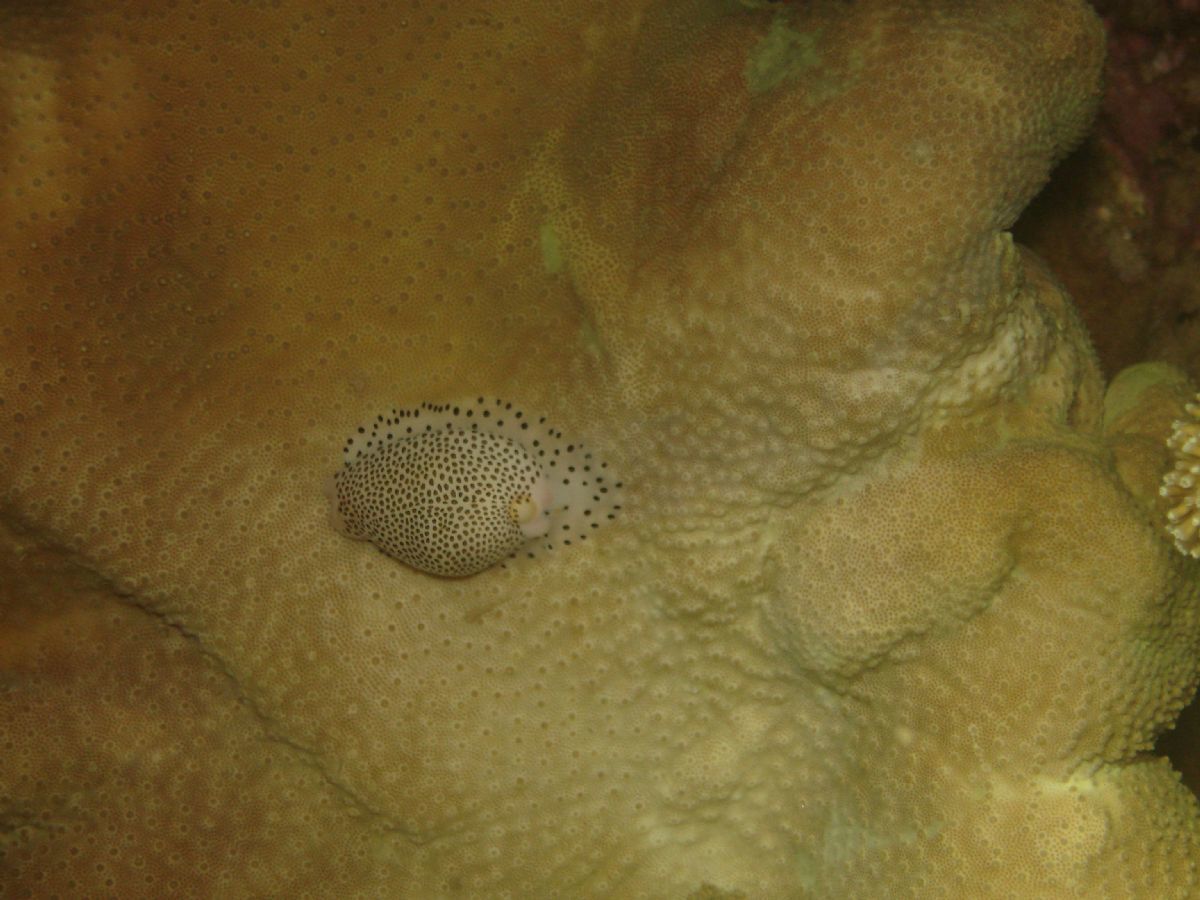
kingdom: Animalia
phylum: Mollusca
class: Gastropoda
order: Littorinimorpha
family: Ovulidae
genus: Calpurnus
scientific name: Calpurnus verrucosus
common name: Common calpurnus
